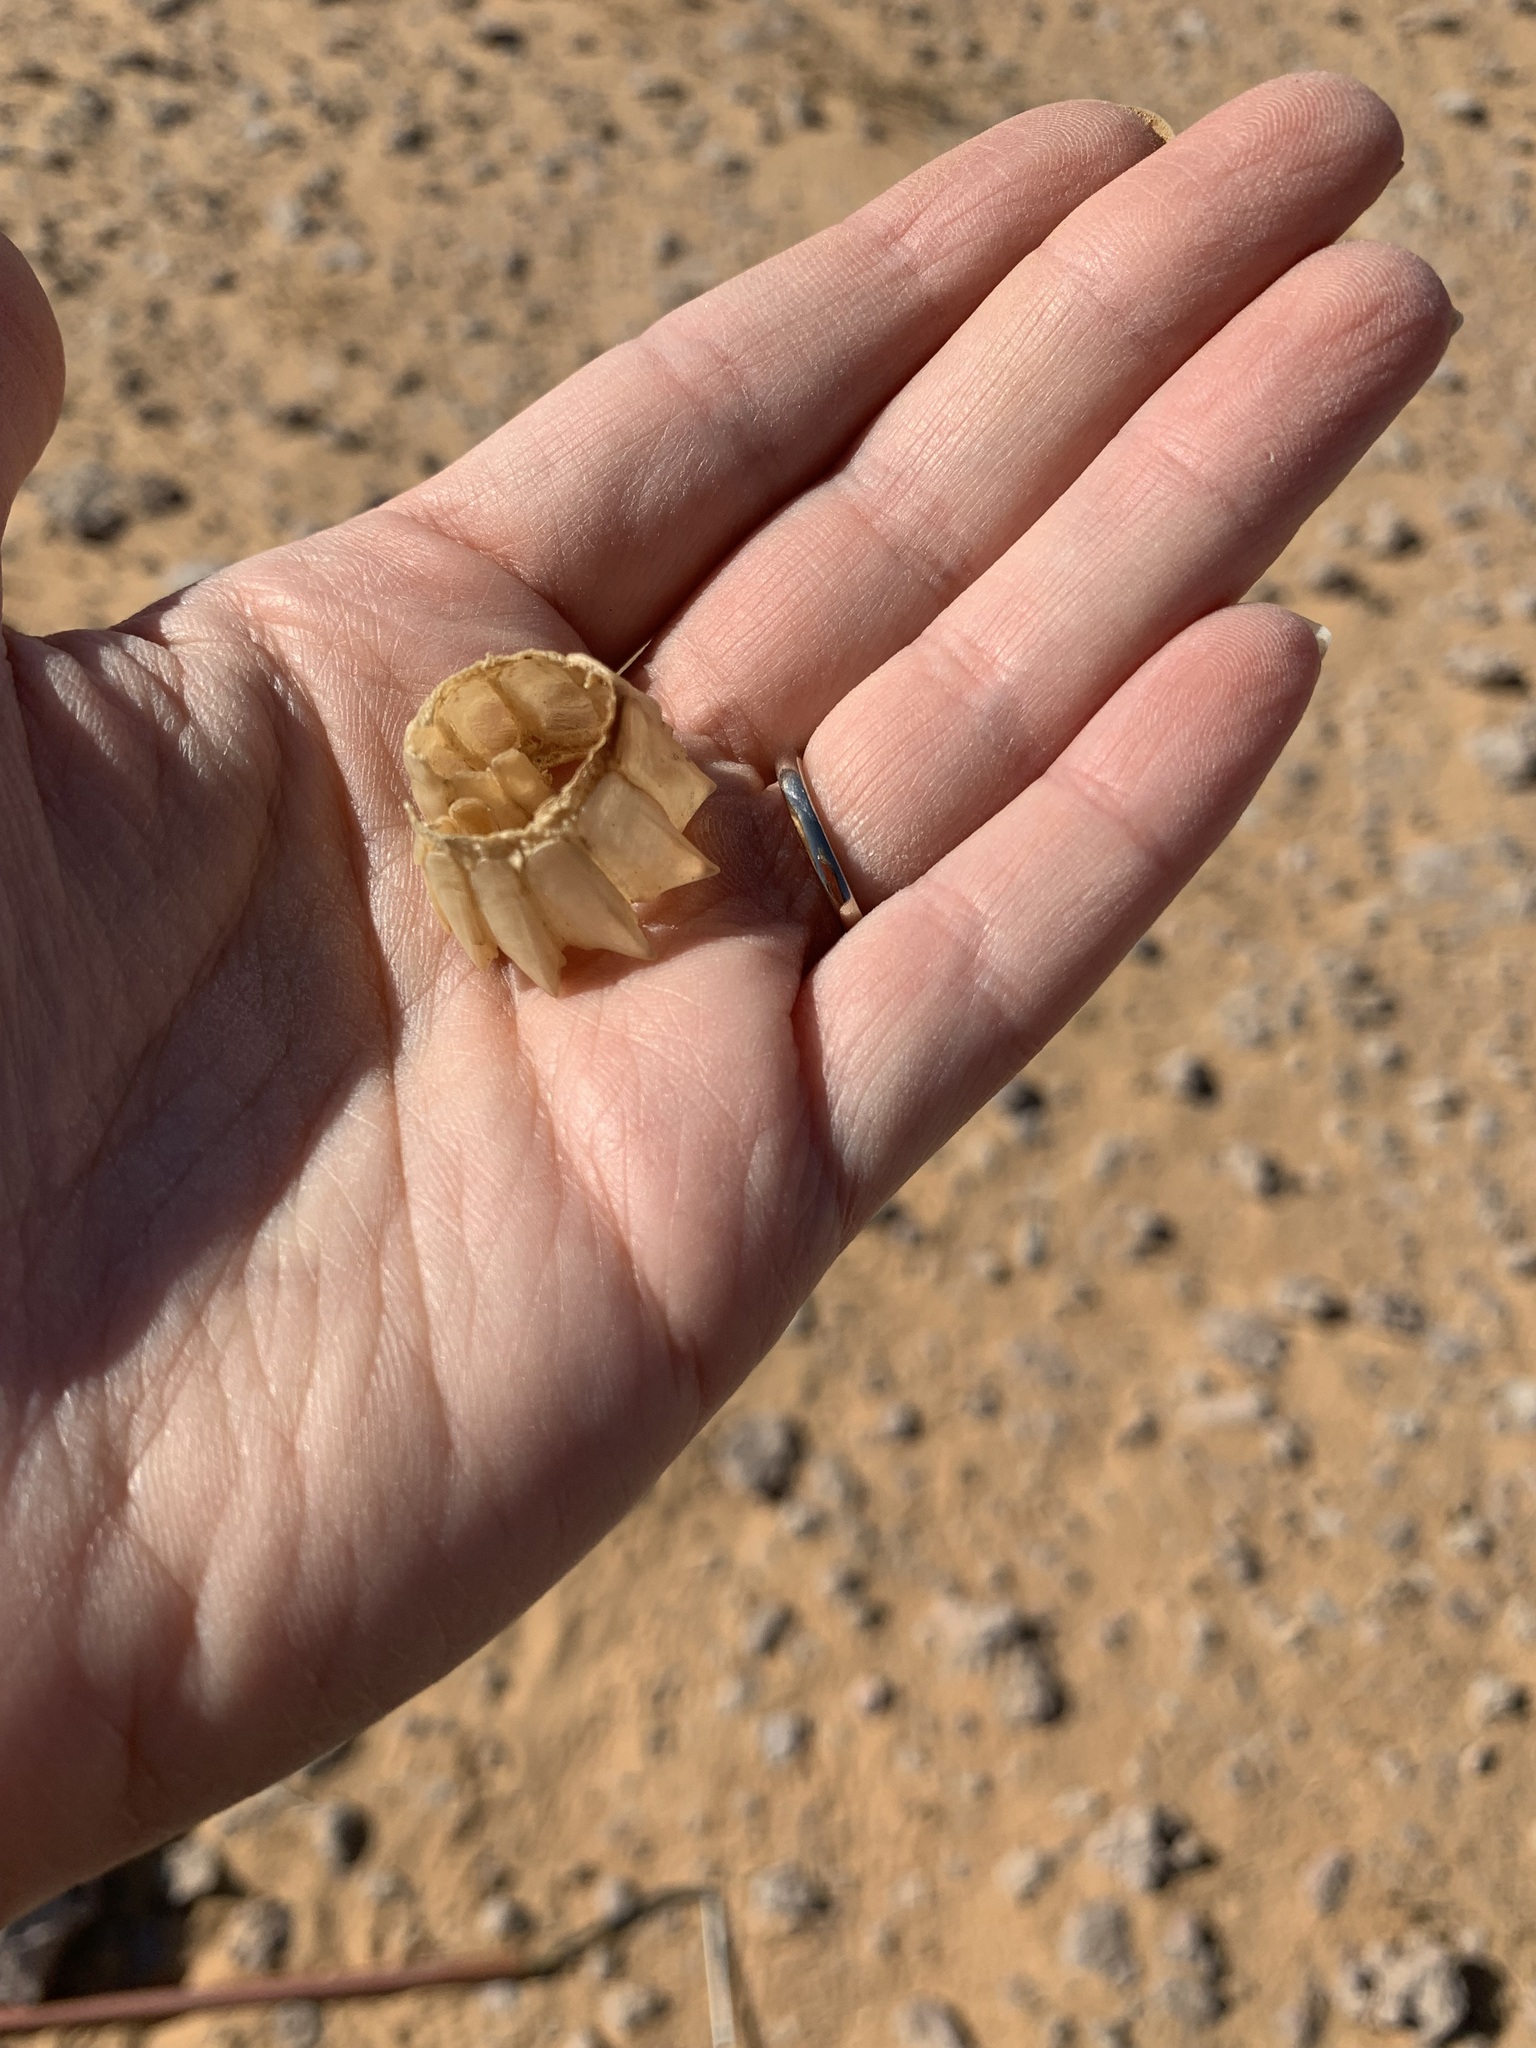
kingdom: Animalia
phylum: Chordata
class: Squamata
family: Agamidae
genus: Uromastyx
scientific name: Uromastyx aegyptia
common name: Egyptian mastigure
